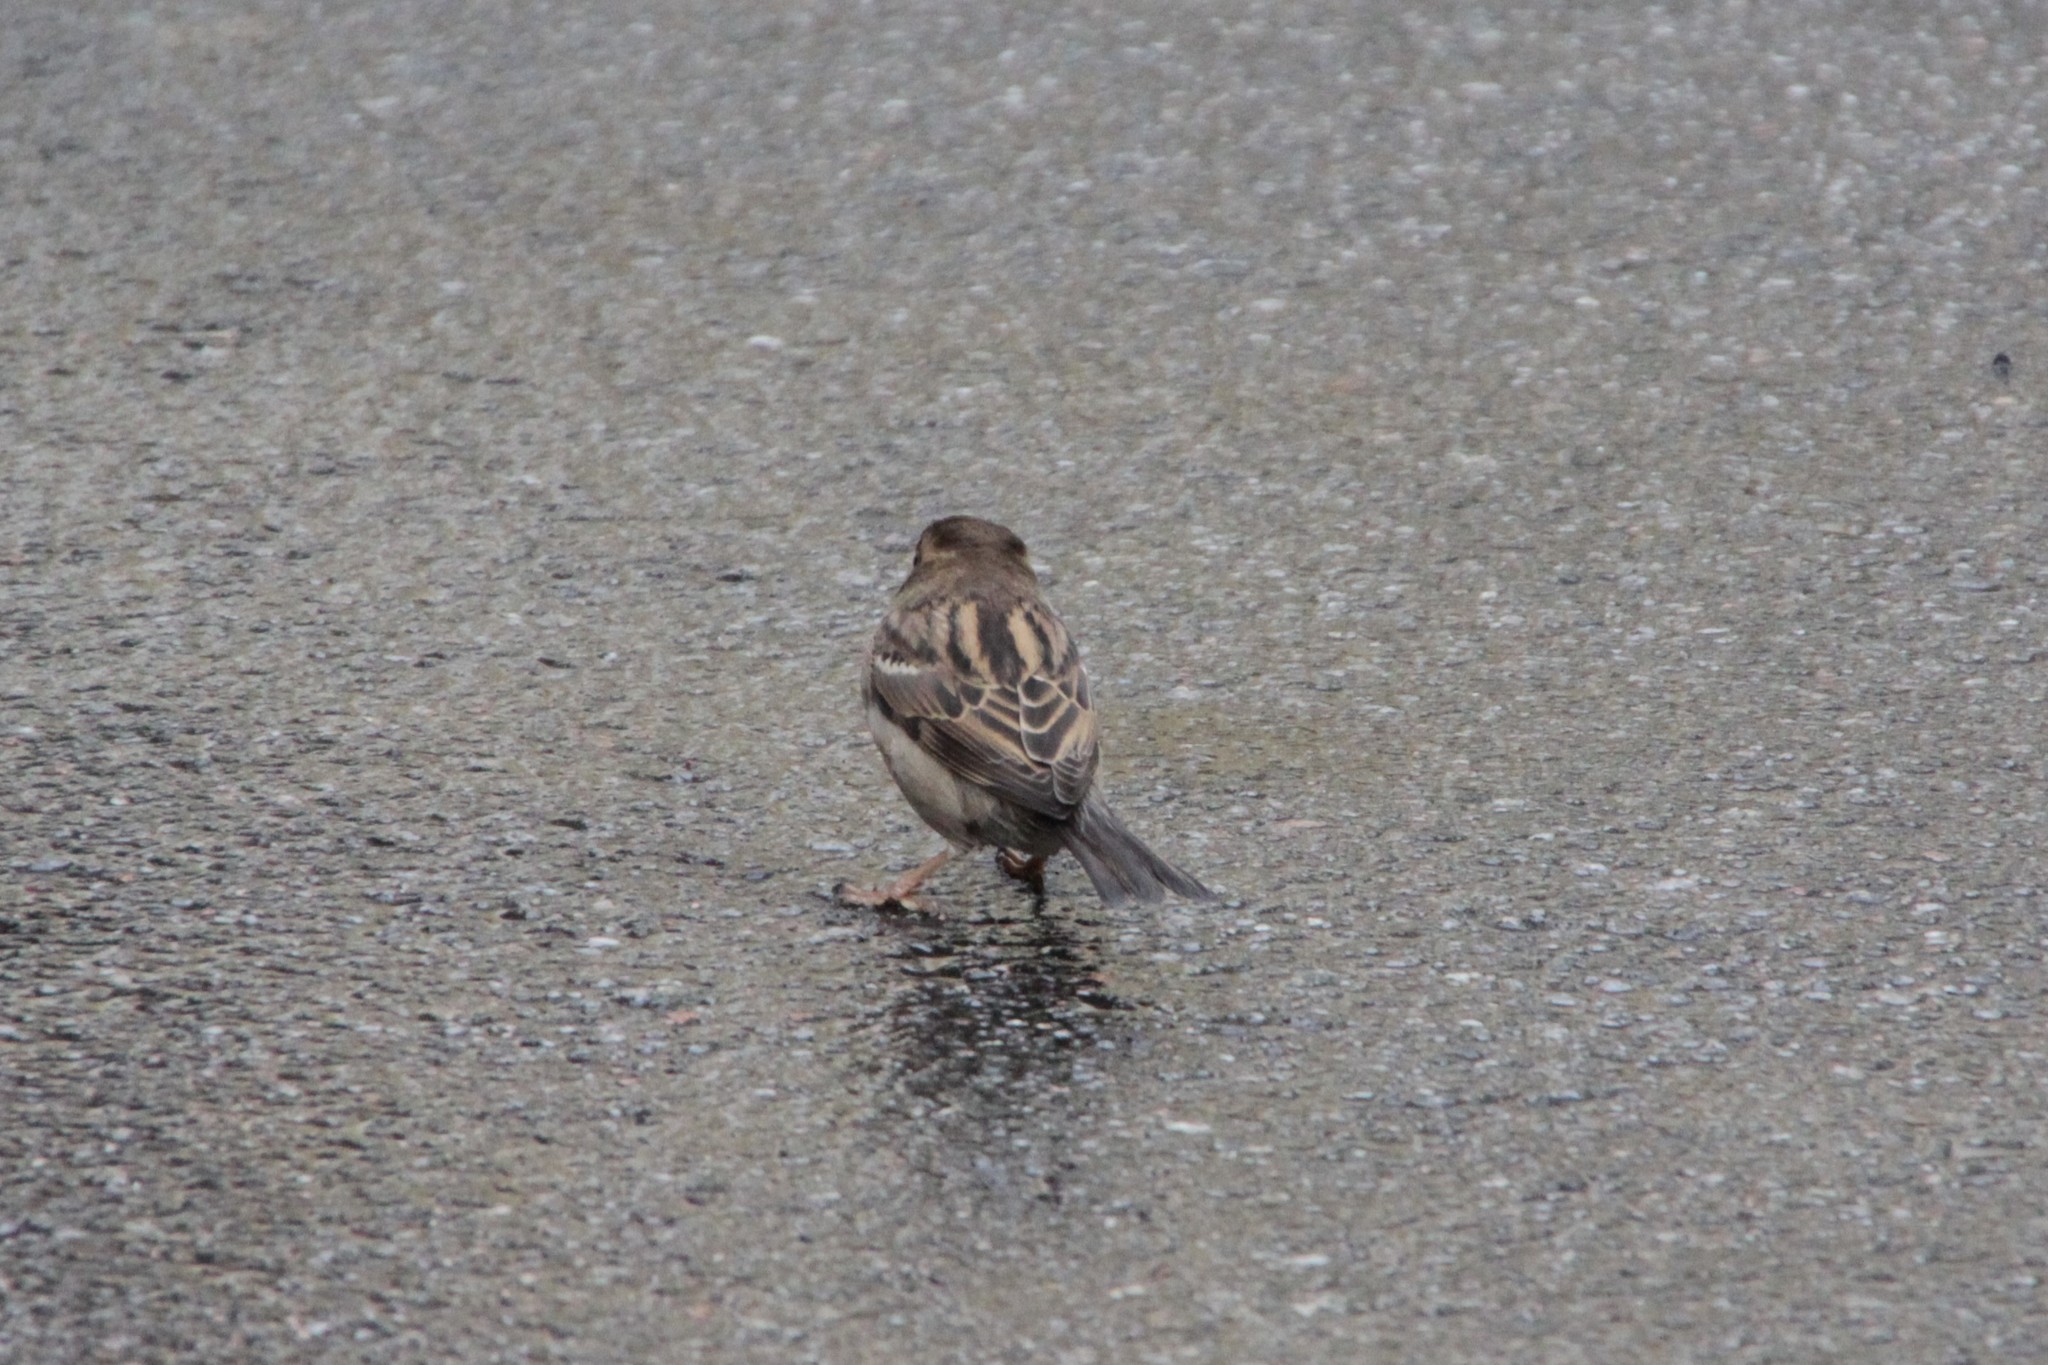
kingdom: Animalia
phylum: Chordata
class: Aves
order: Passeriformes
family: Passeridae
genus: Passer
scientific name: Passer domesticus
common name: House sparrow
